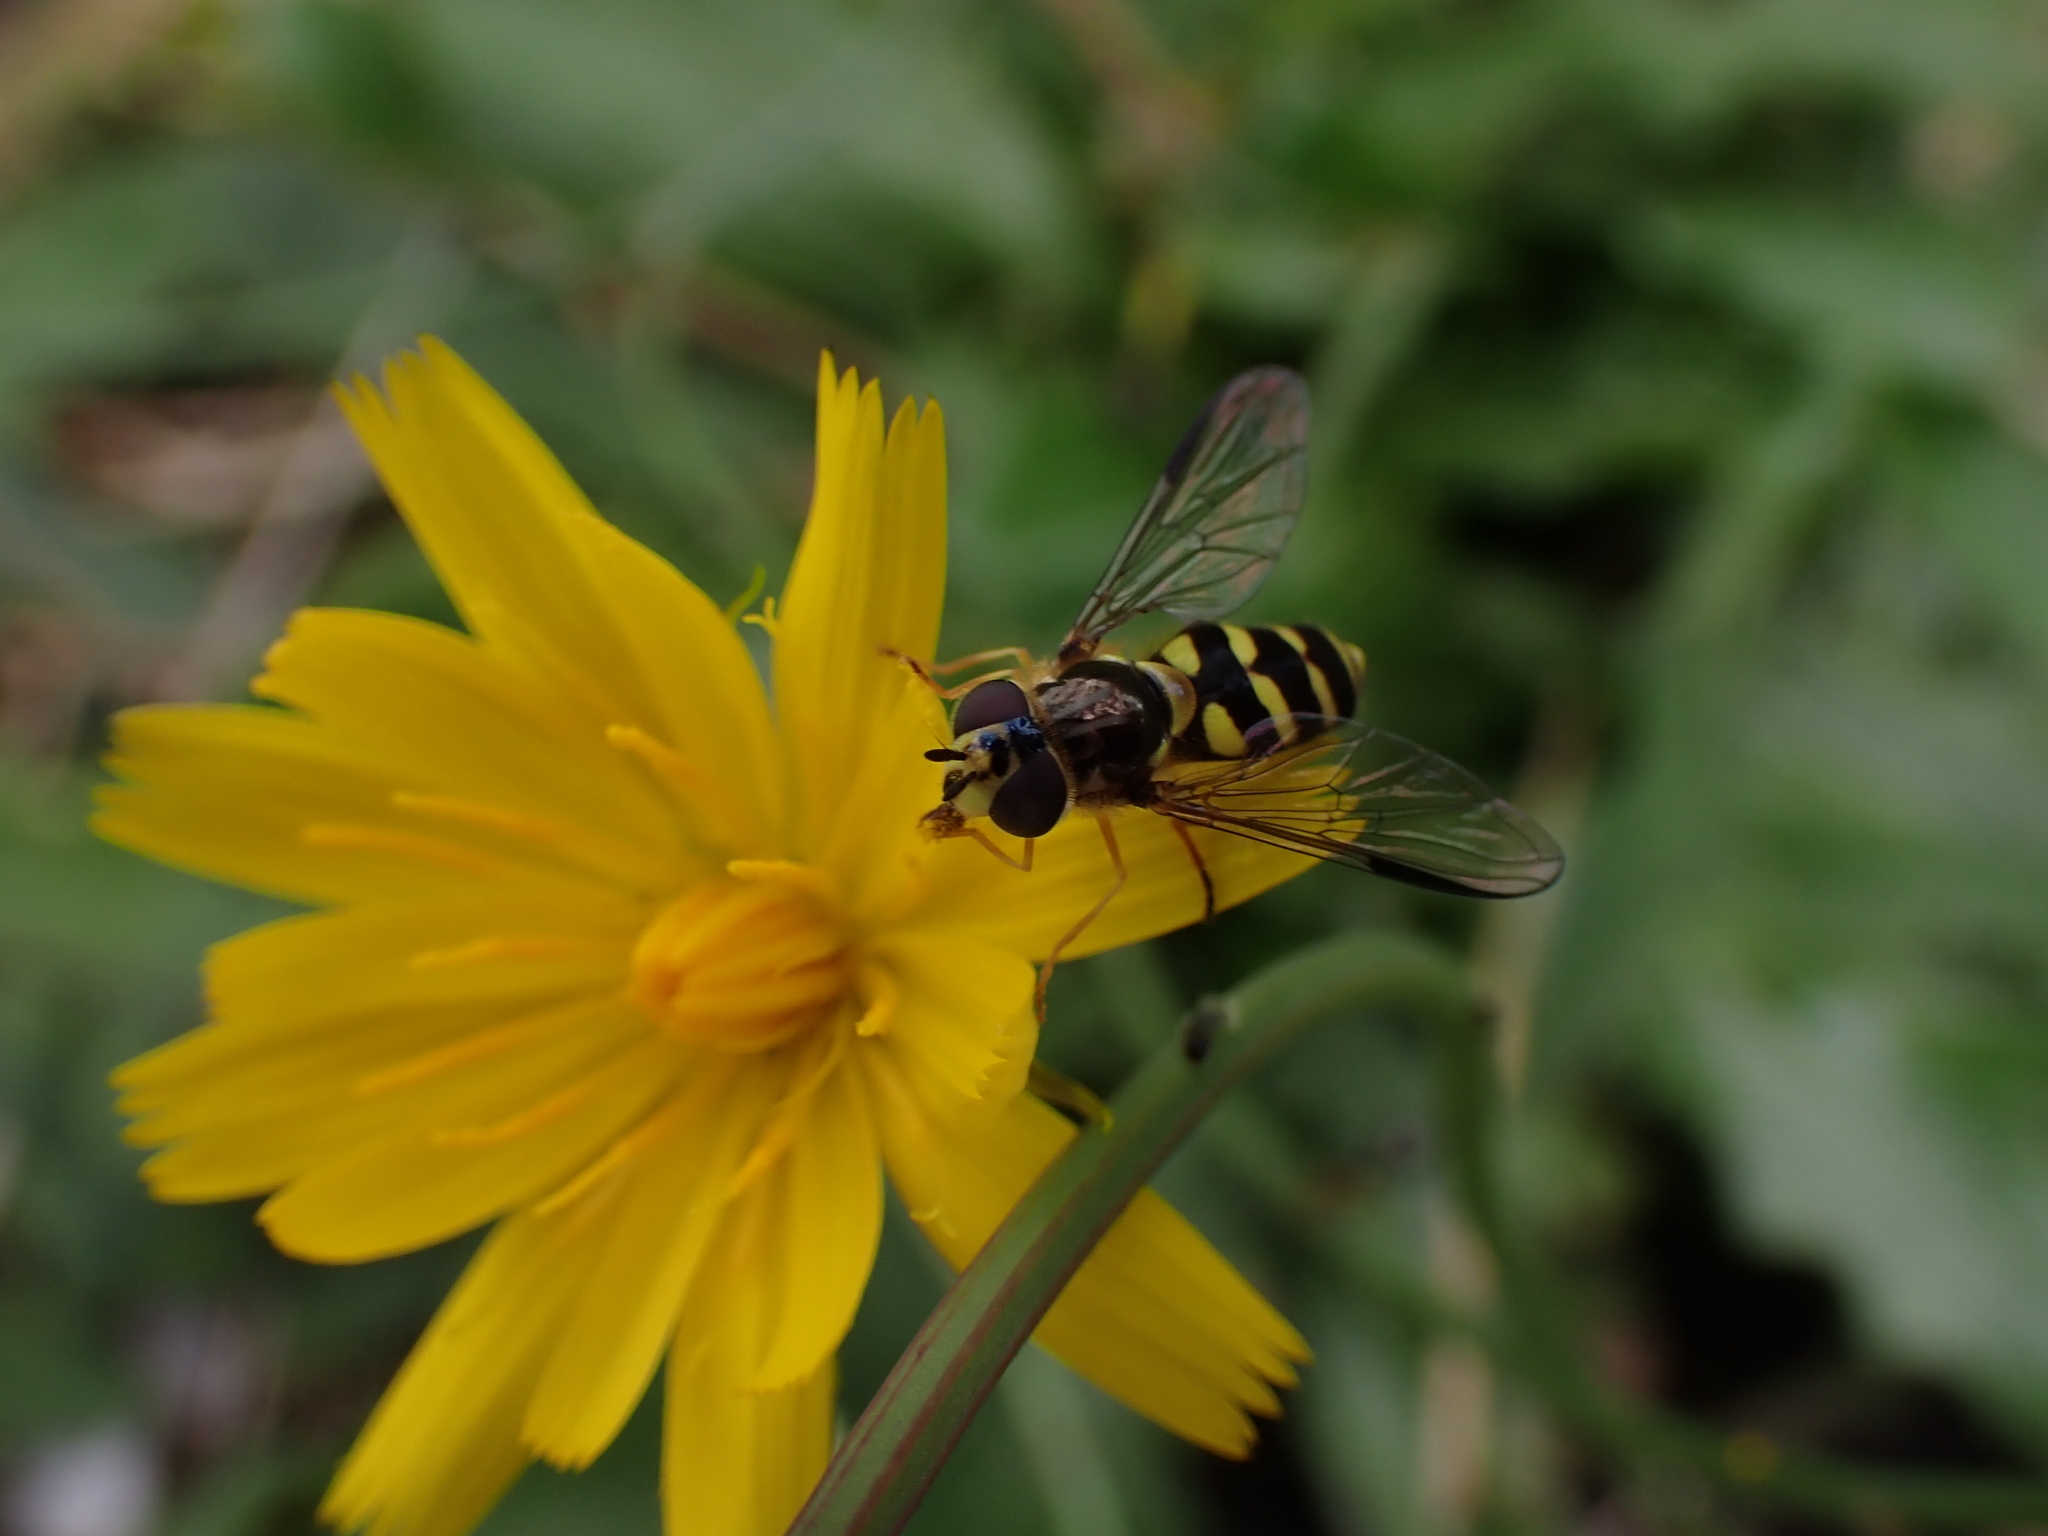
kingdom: Animalia
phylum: Arthropoda
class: Insecta
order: Diptera
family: Syrphidae
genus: Dasysyrphus
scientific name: Dasysyrphus albostriatus
